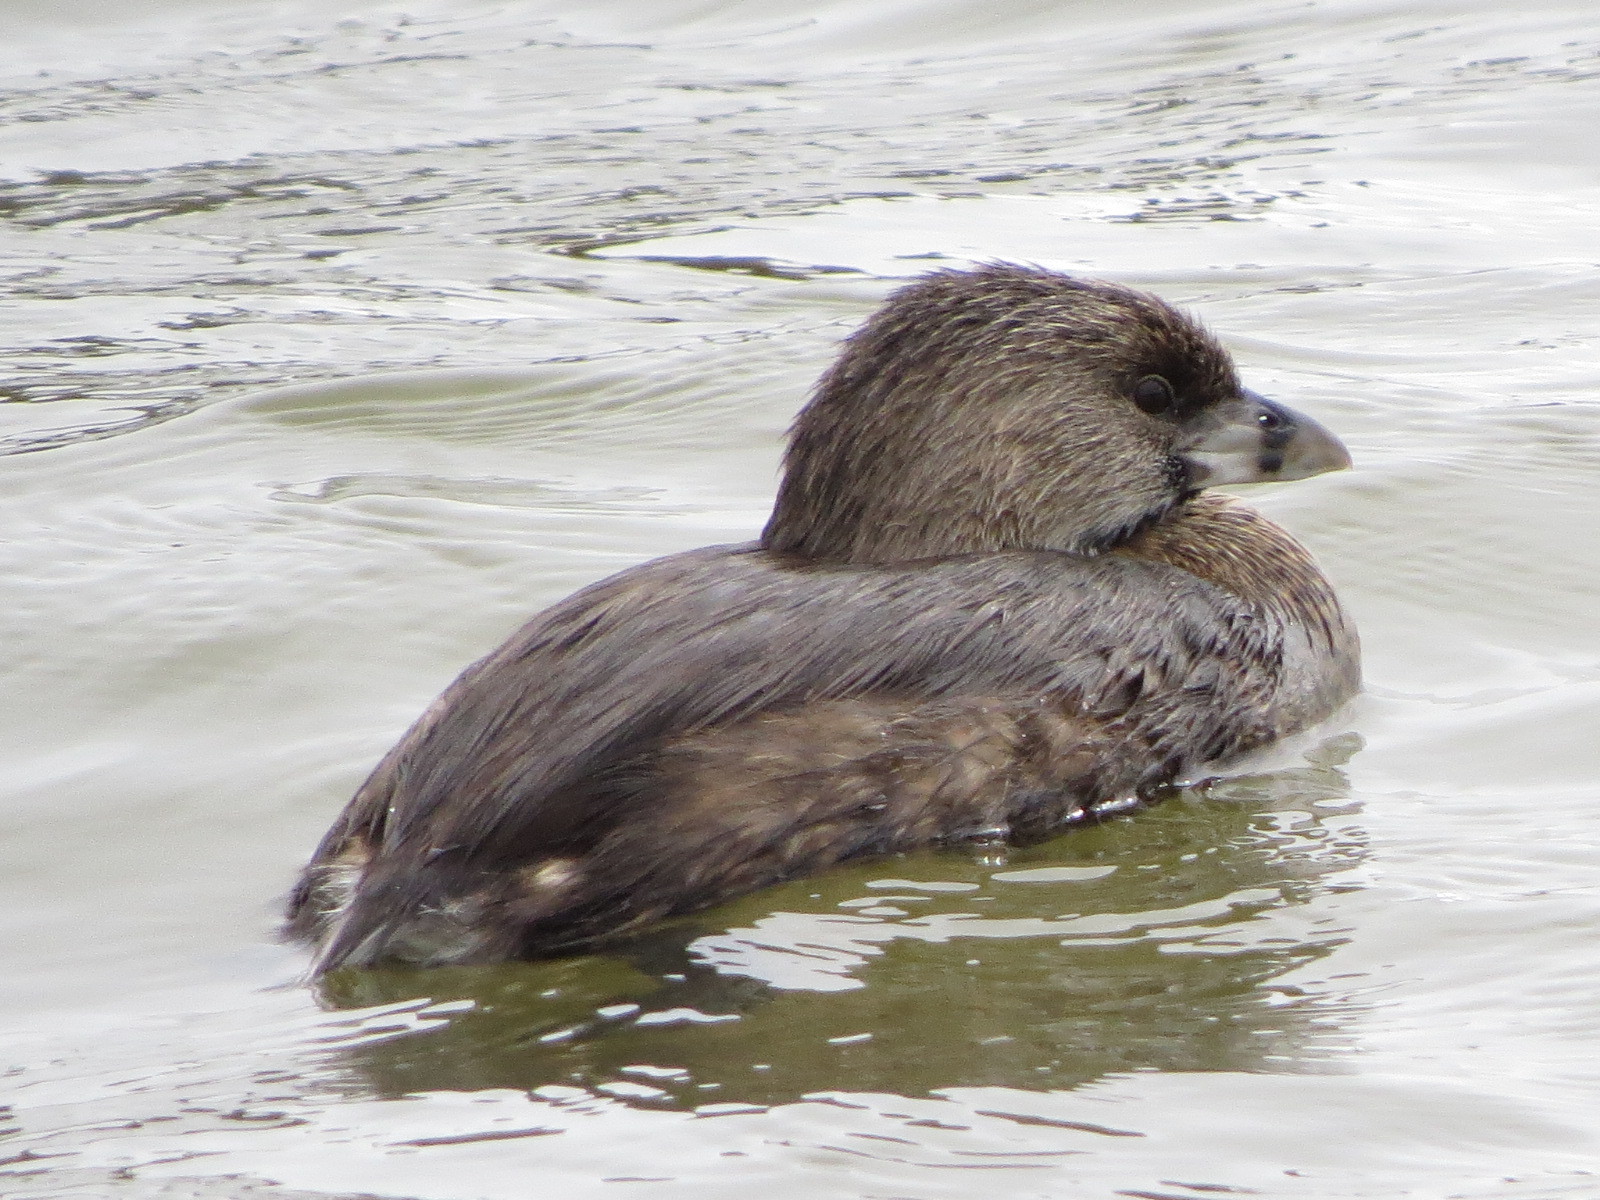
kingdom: Animalia
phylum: Chordata
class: Aves
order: Podicipediformes
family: Podicipedidae
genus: Podilymbus
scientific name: Podilymbus podiceps
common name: Pied-billed grebe
